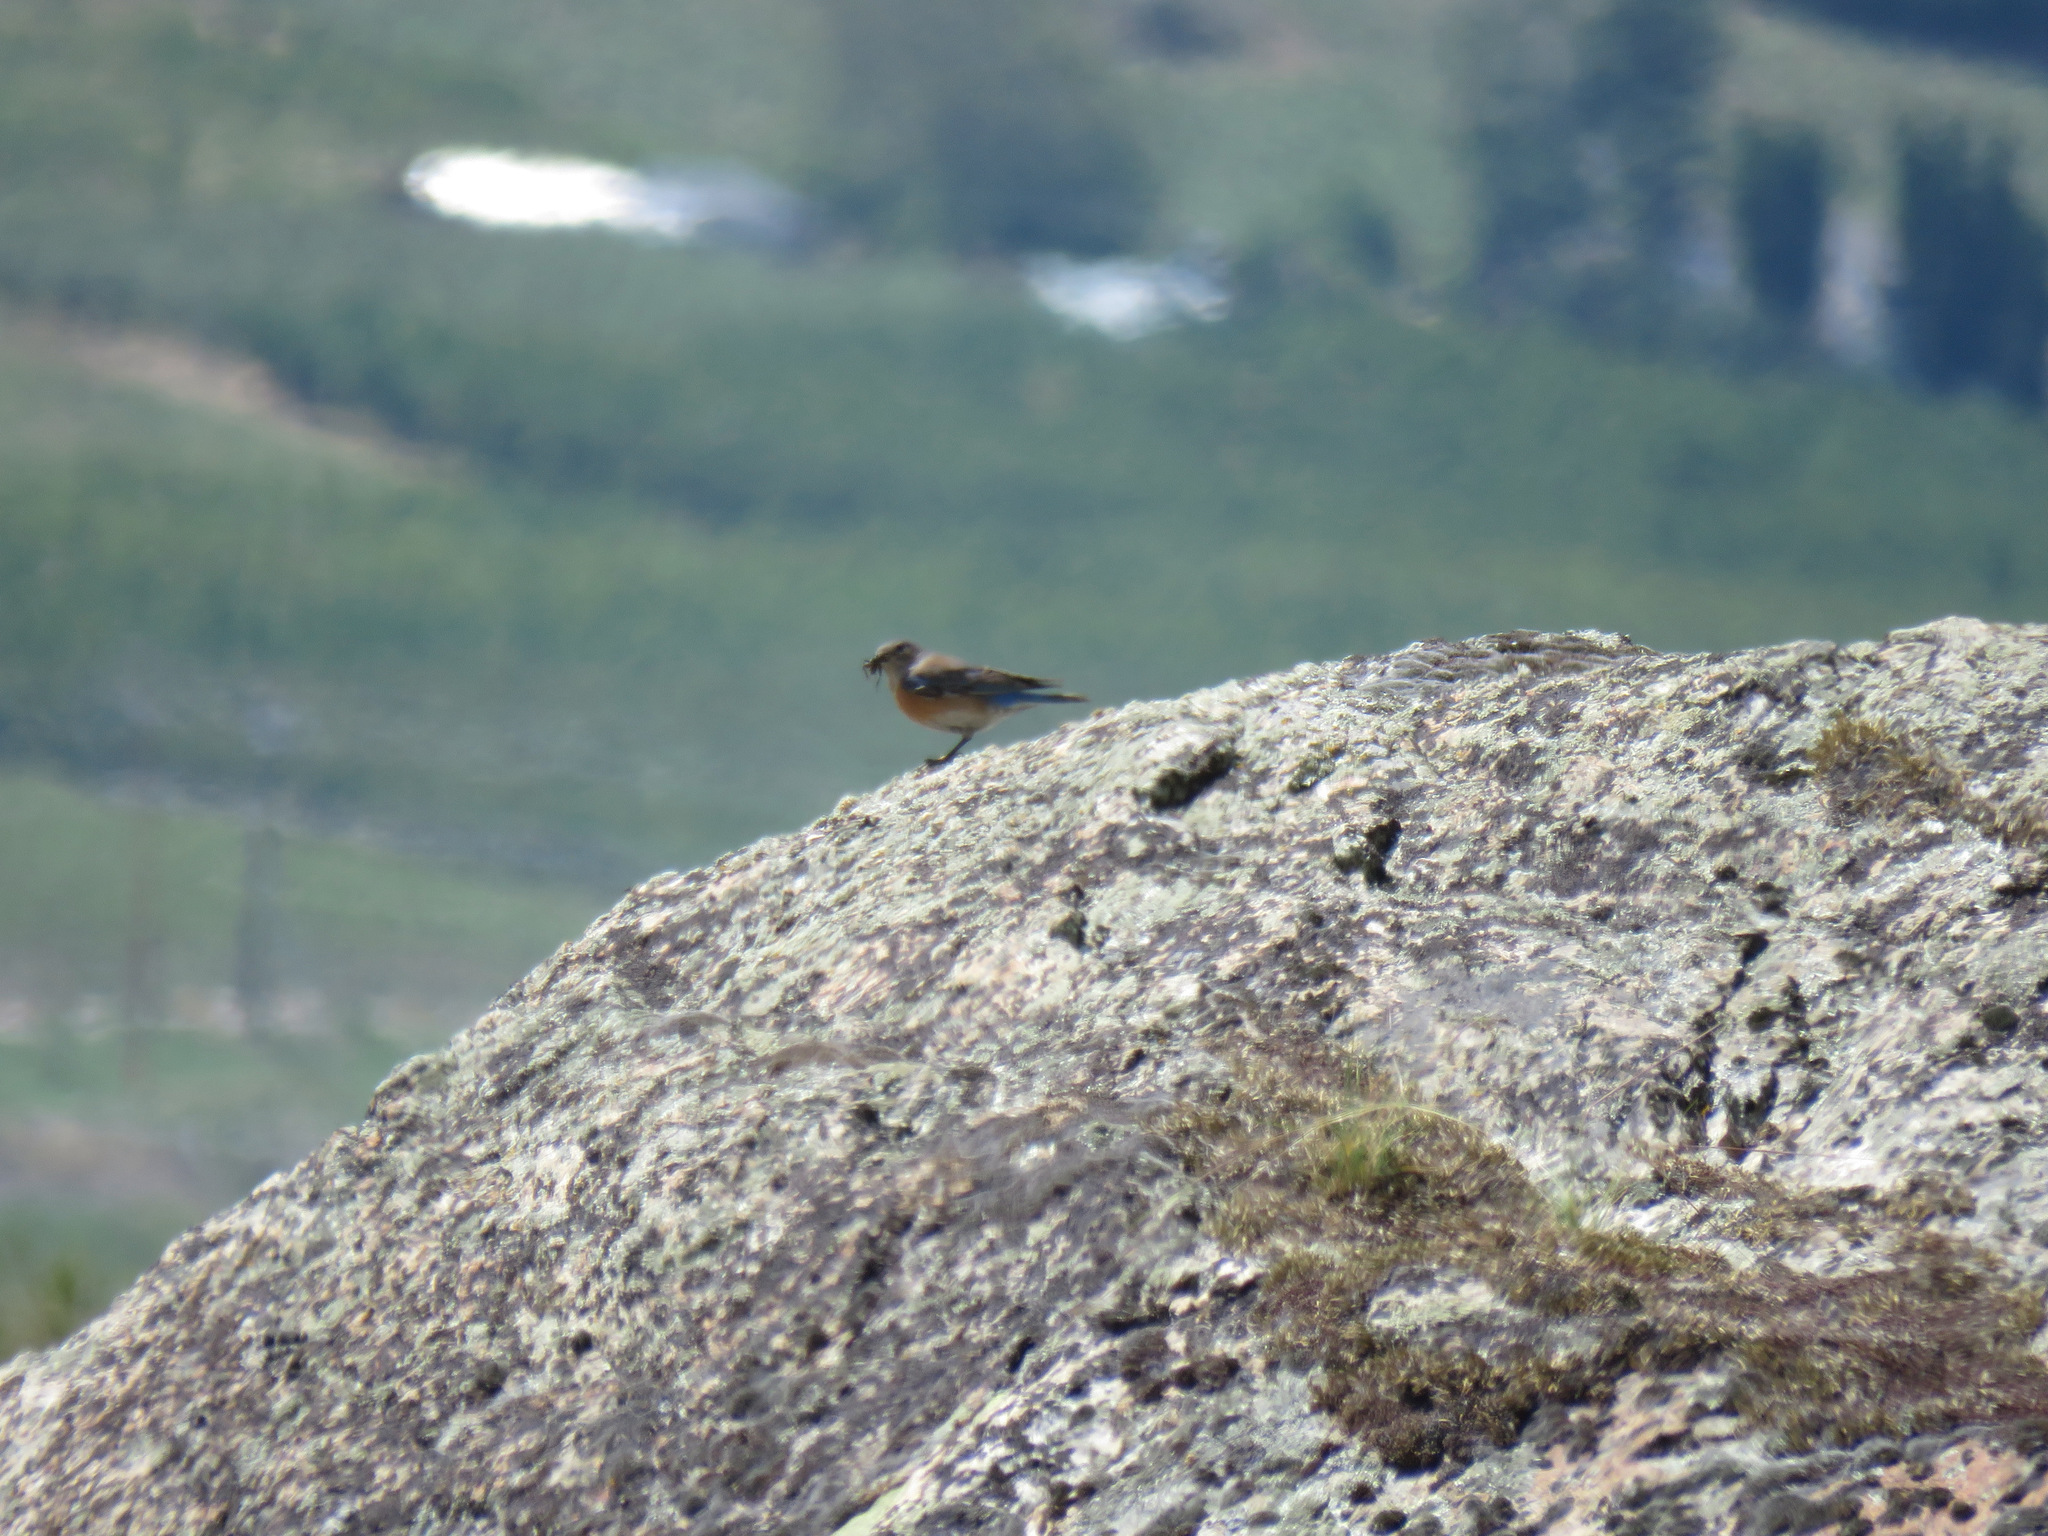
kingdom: Animalia
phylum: Chordata
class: Aves
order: Passeriformes
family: Turdidae
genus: Sialia
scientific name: Sialia mexicana
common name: Western bluebird
